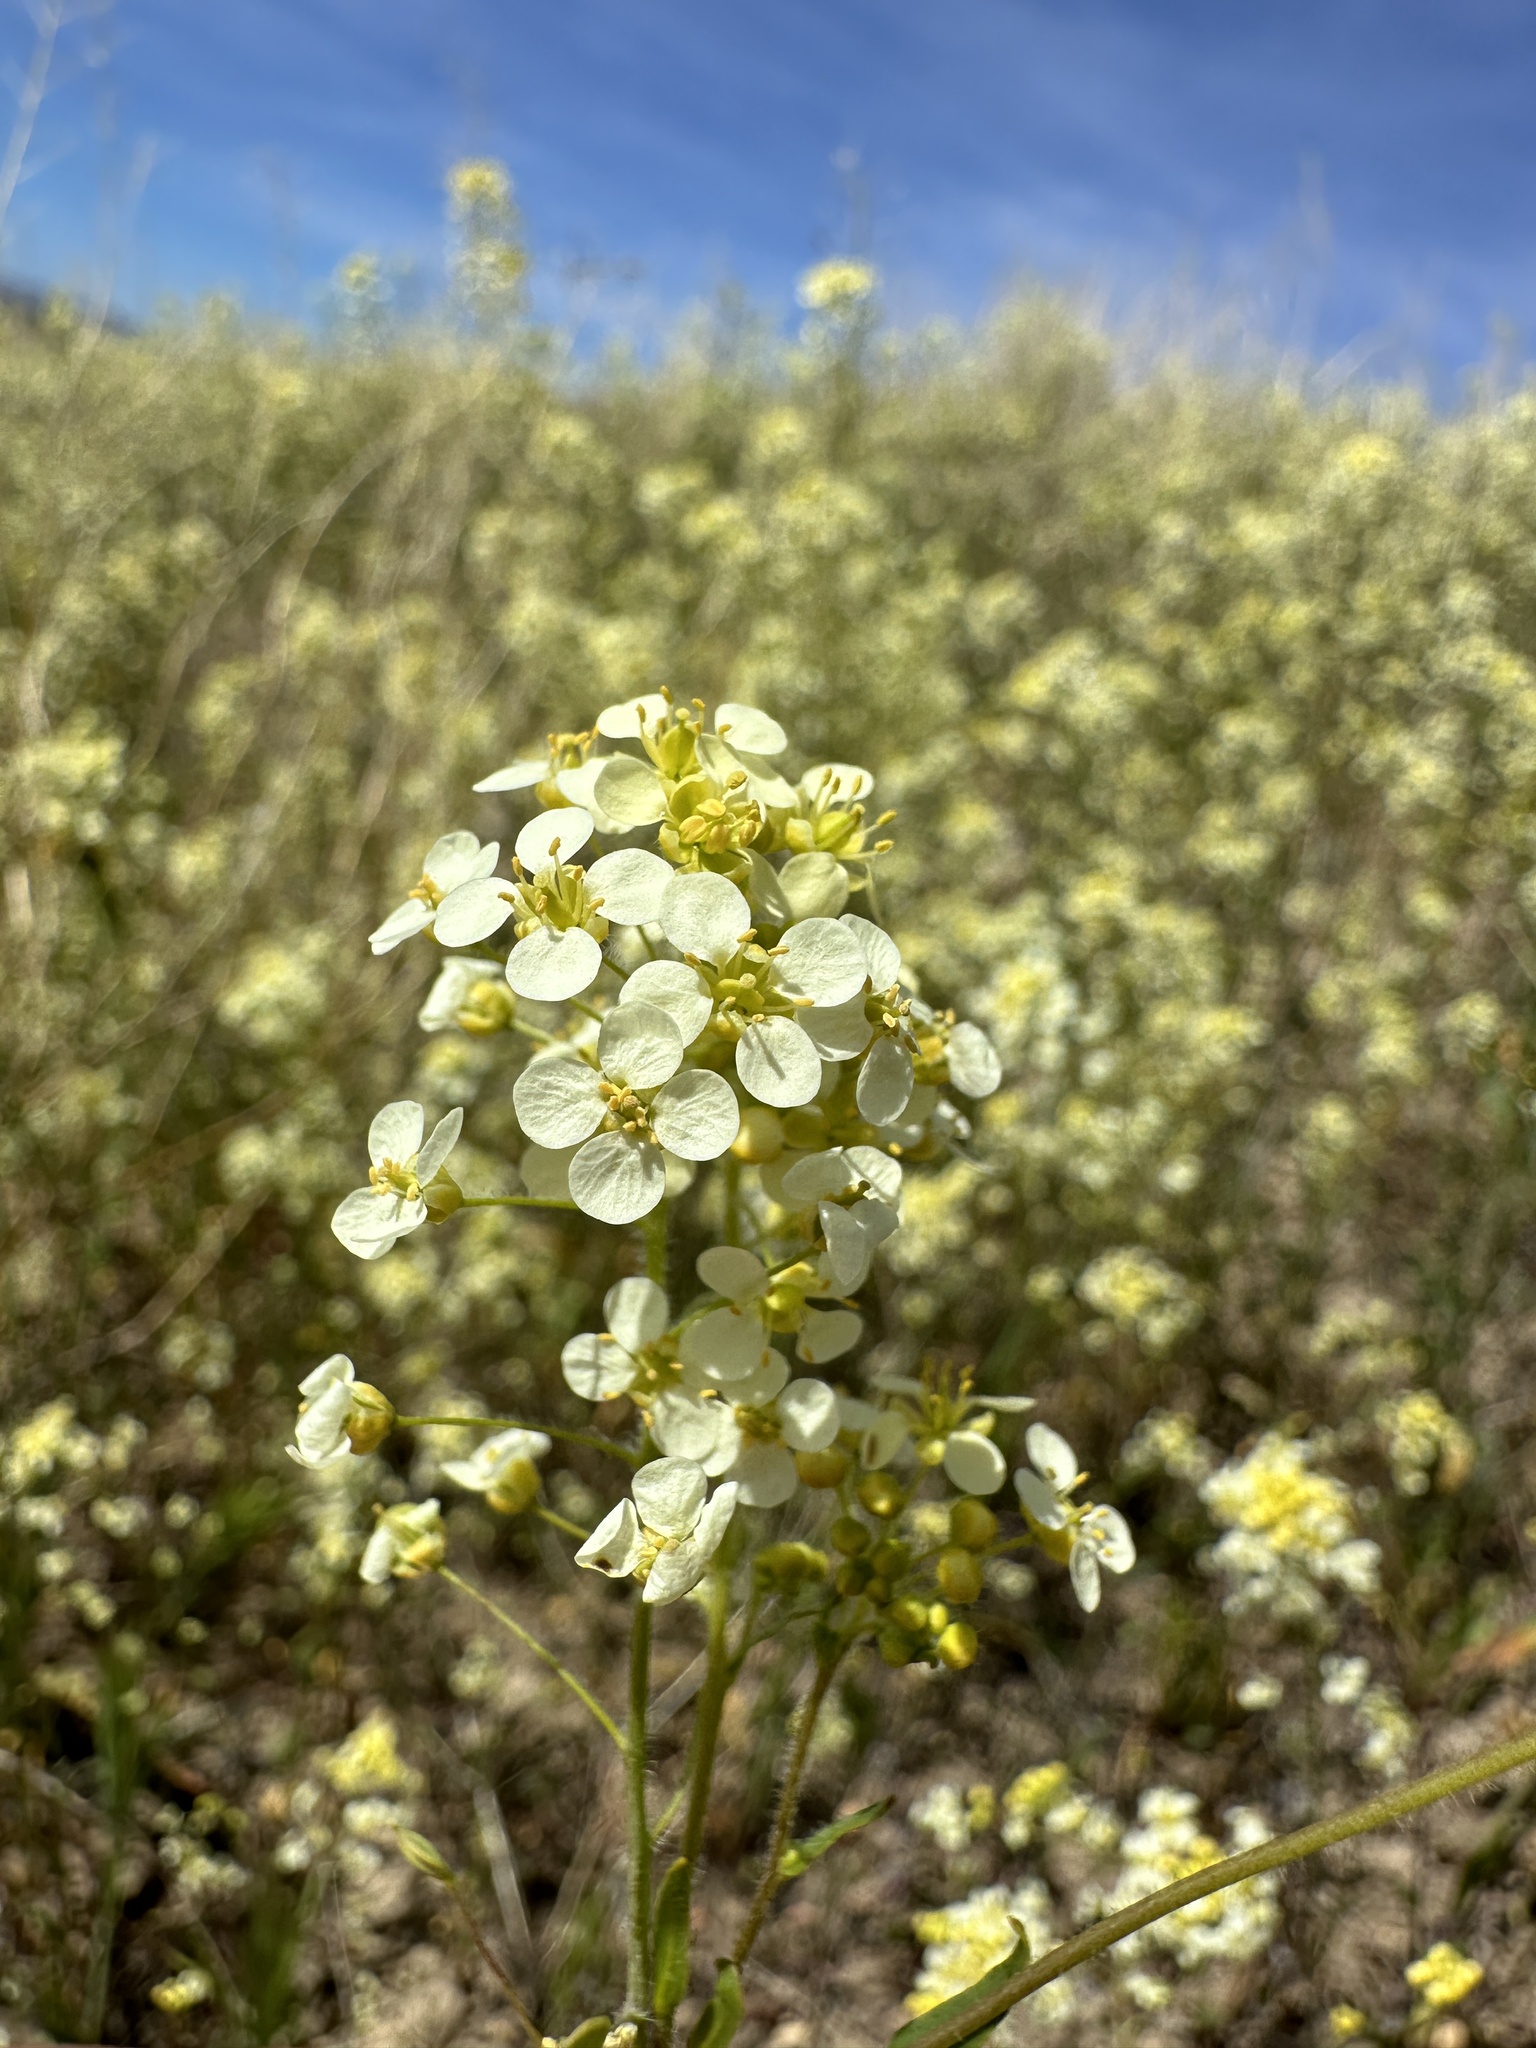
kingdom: Plantae
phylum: Tracheophyta
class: Magnoliopsida
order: Brassicales
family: Brassicaceae
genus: Lepidium
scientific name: Lepidium jaredii
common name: Jared's peppergrass
